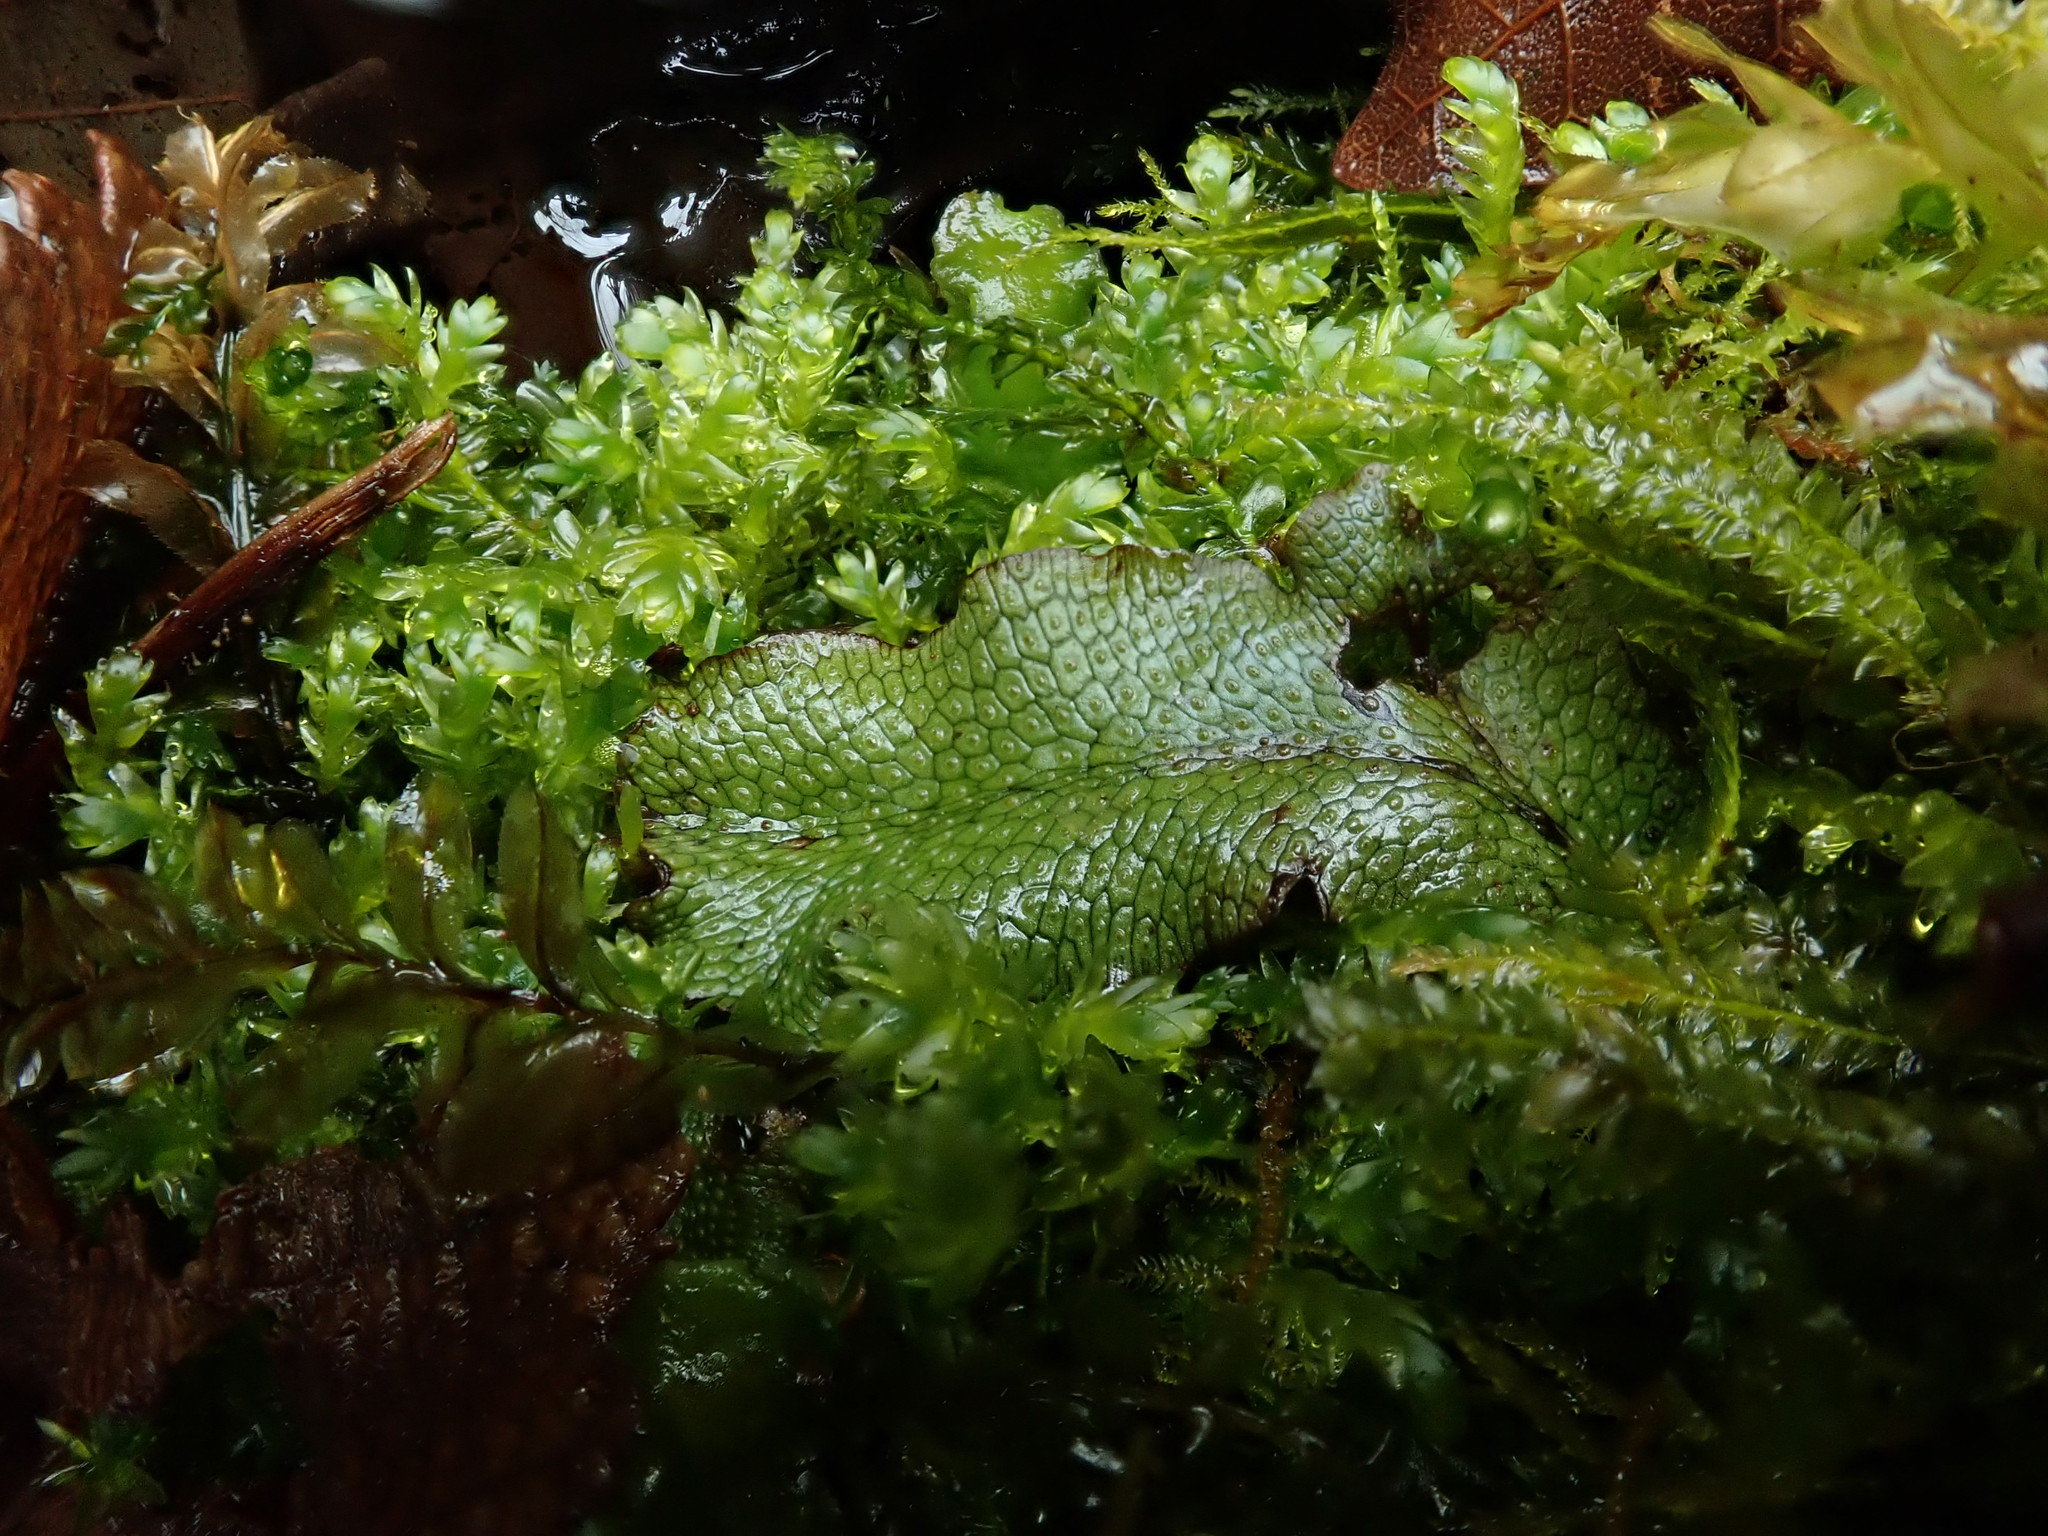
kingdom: Plantae
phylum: Marchantiophyta
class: Marchantiopsida
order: Marchantiales
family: Conocephalaceae
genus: Conocephalum
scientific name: Conocephalum conicum
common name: Great scented liverwort
